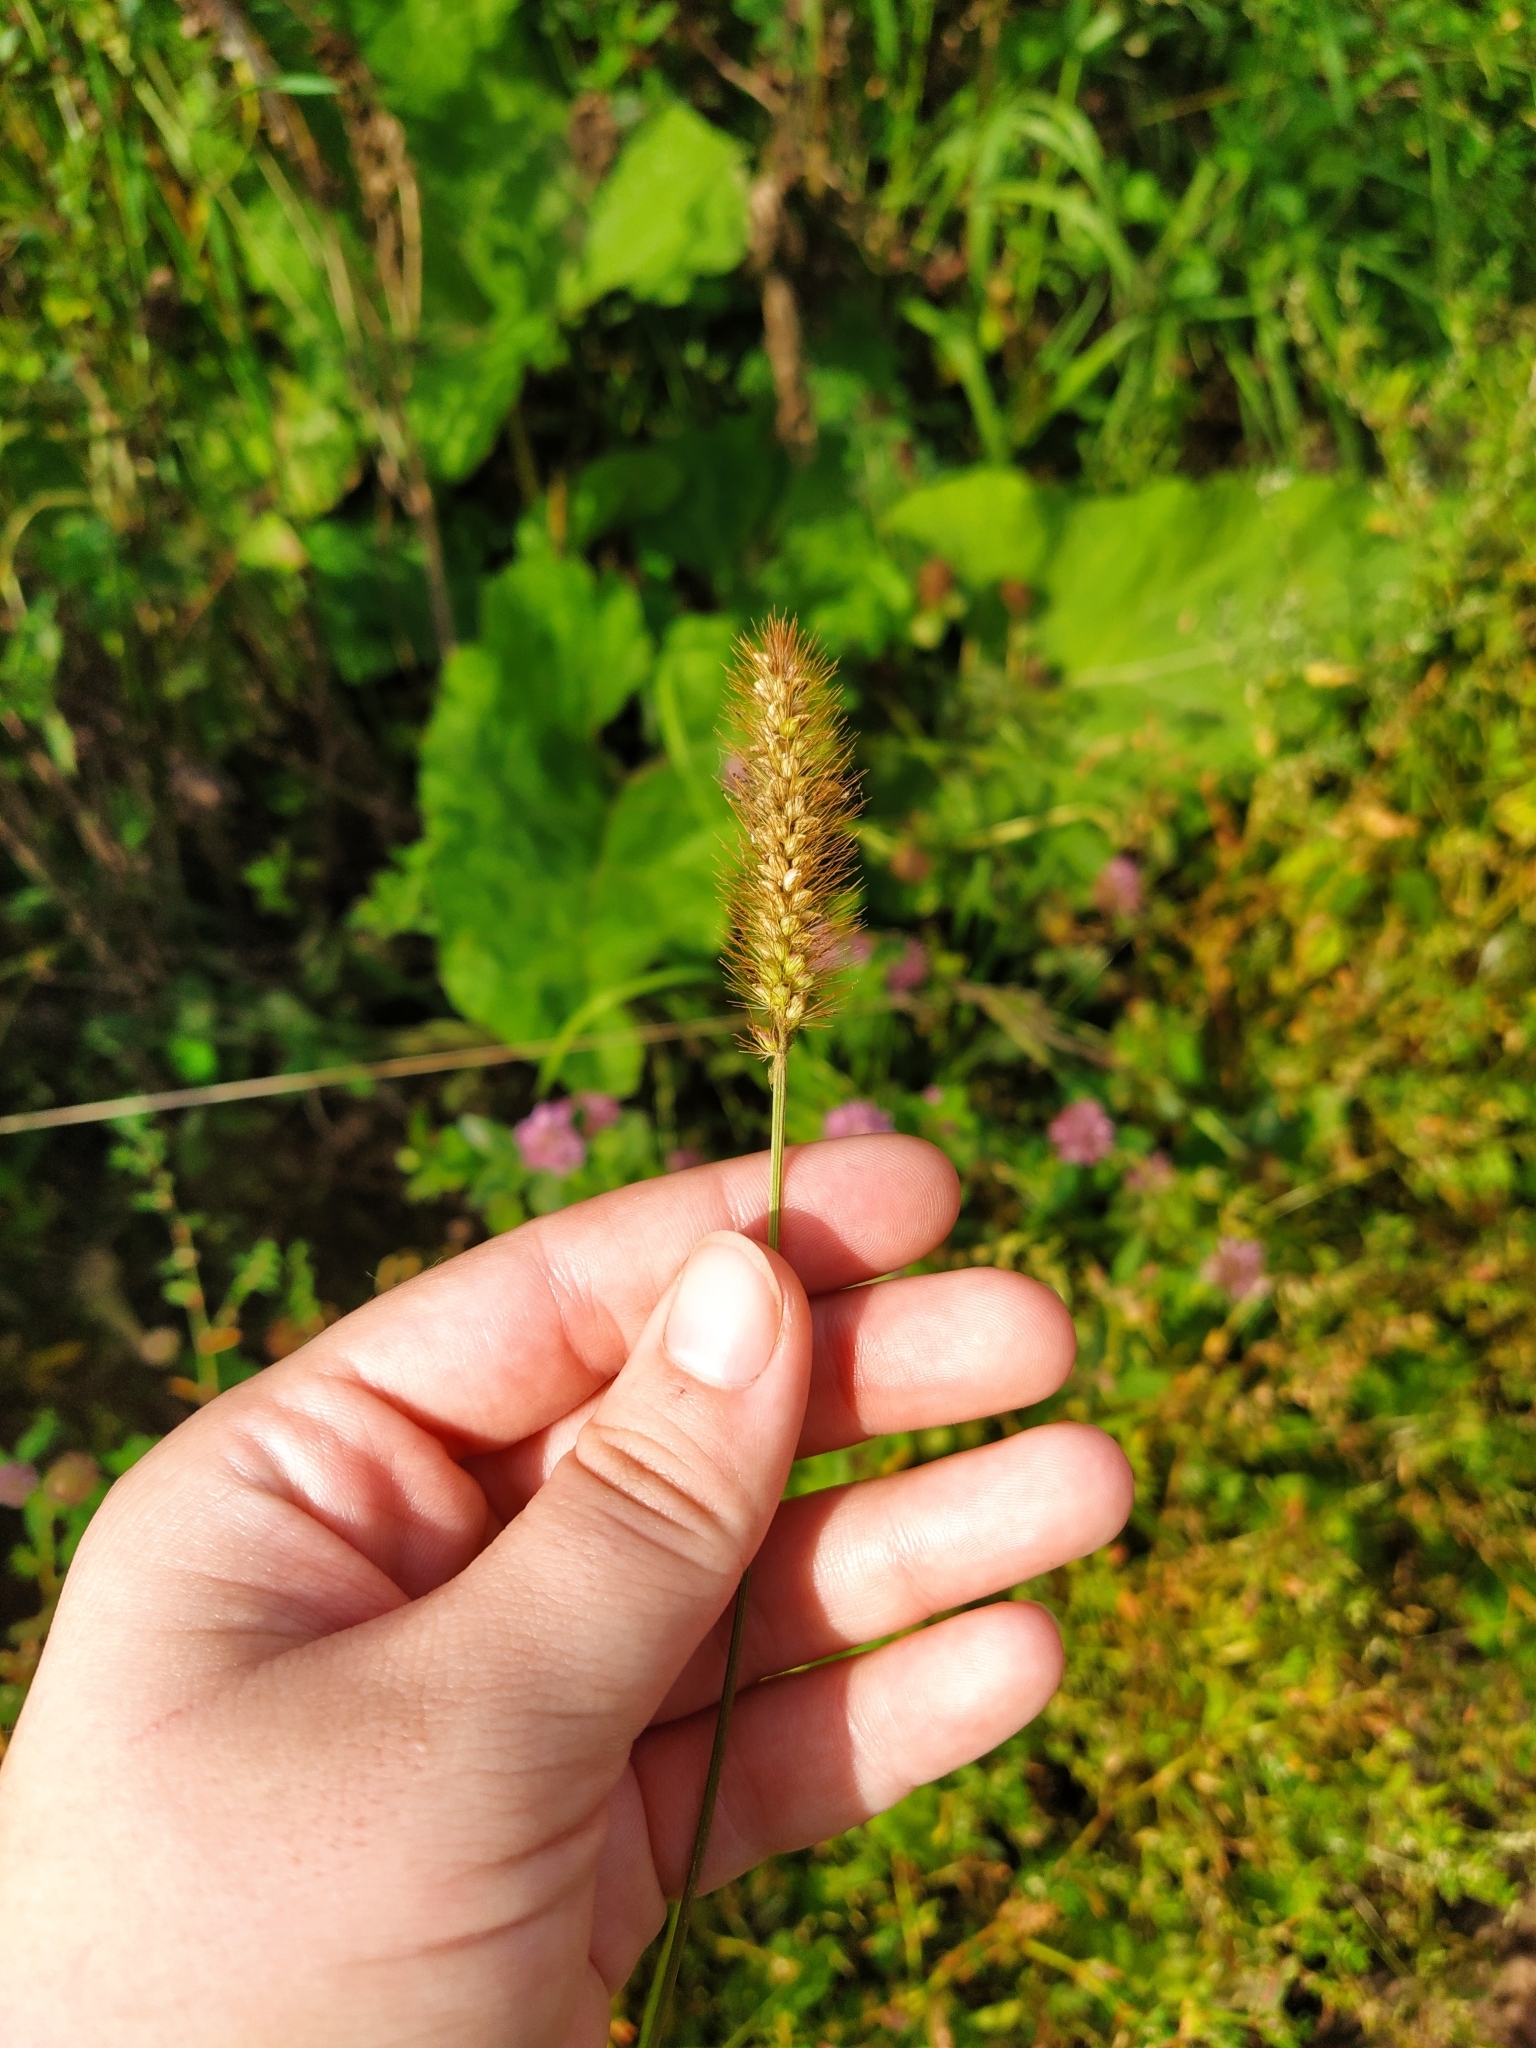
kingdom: Plantae
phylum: Tracheophyta
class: Liliopsida
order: Poales
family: Poaceae
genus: Setaria
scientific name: Setaria pumila
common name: Yellow bristle-grass
